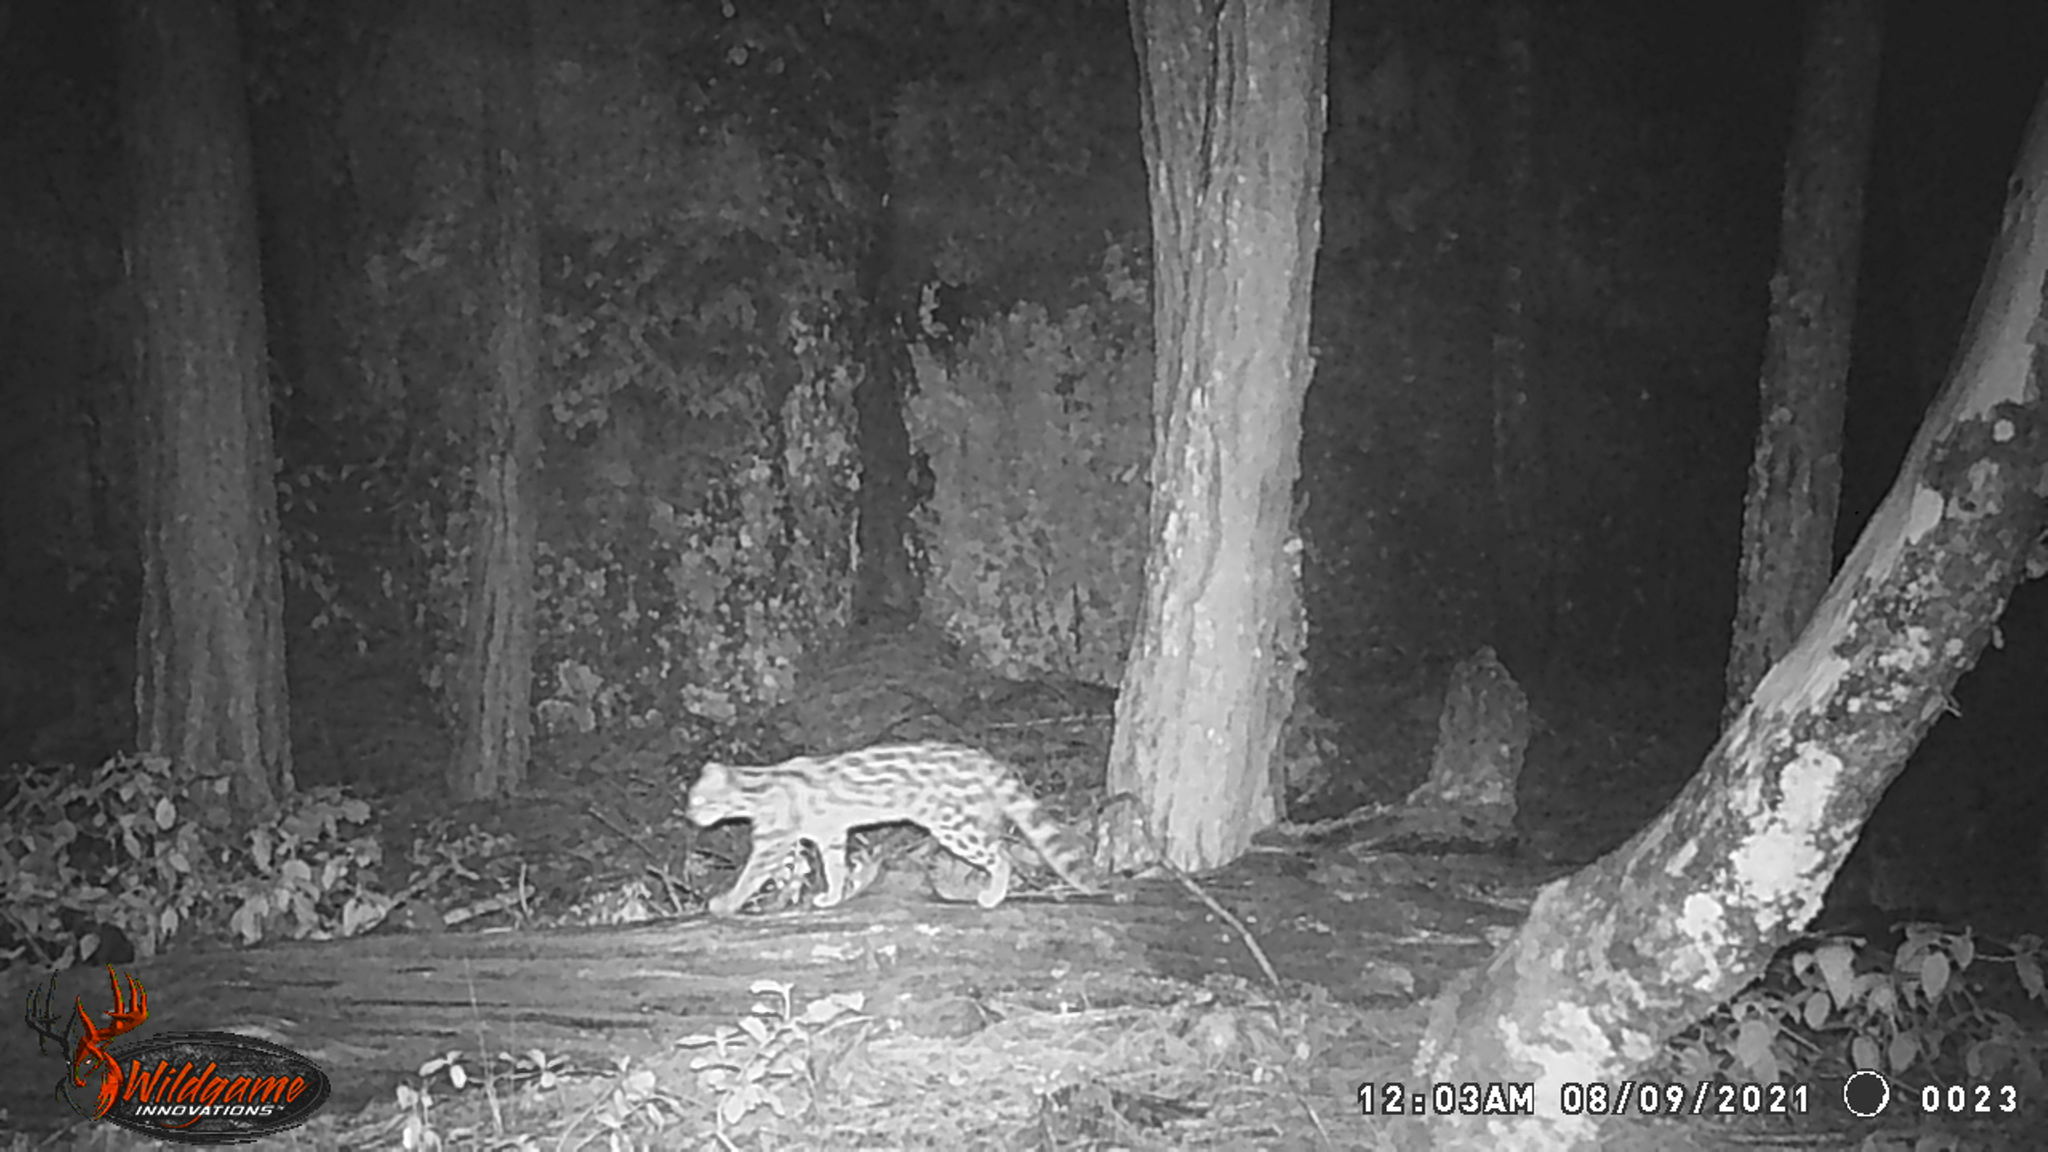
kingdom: Animalia
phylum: Chordata
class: Mammalia
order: Carnivora
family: Felidae
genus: Leopardus
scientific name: Leopardus wiedii
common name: Margay
